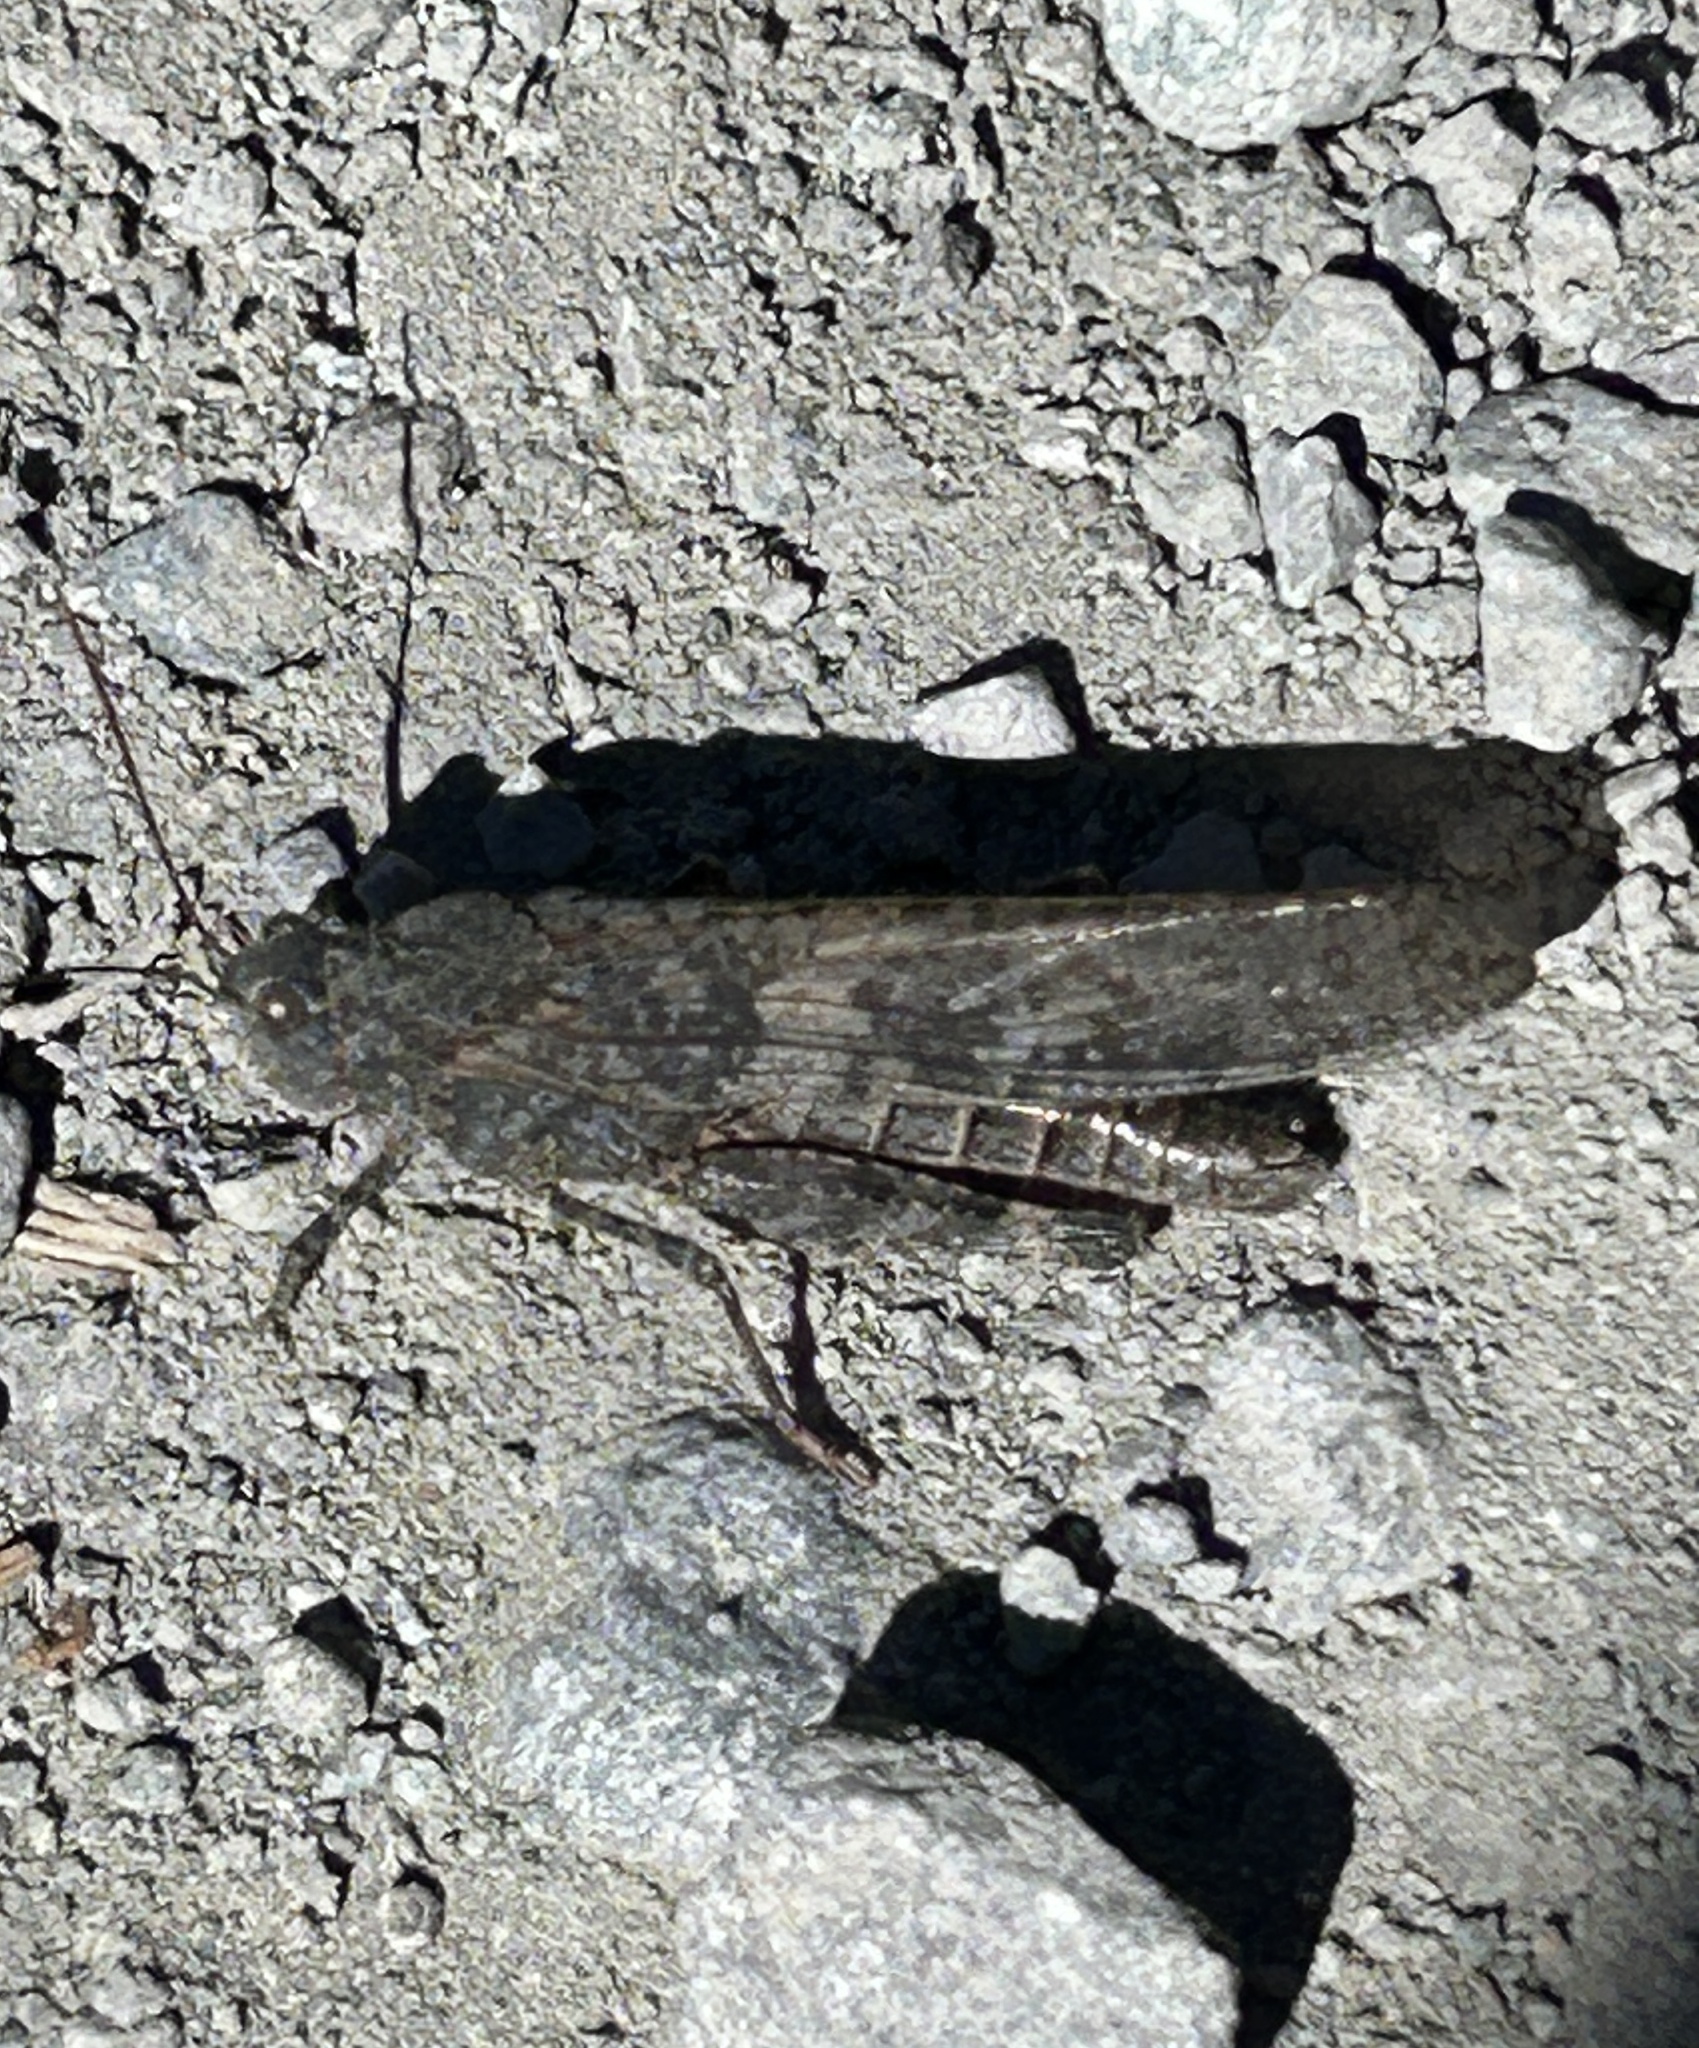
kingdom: Animalia
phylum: Arthropoda
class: Insecta
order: Orthoptera
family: Acrididae
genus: Circotettix
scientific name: Circotettix rabula
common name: Wrangler grasshopper
